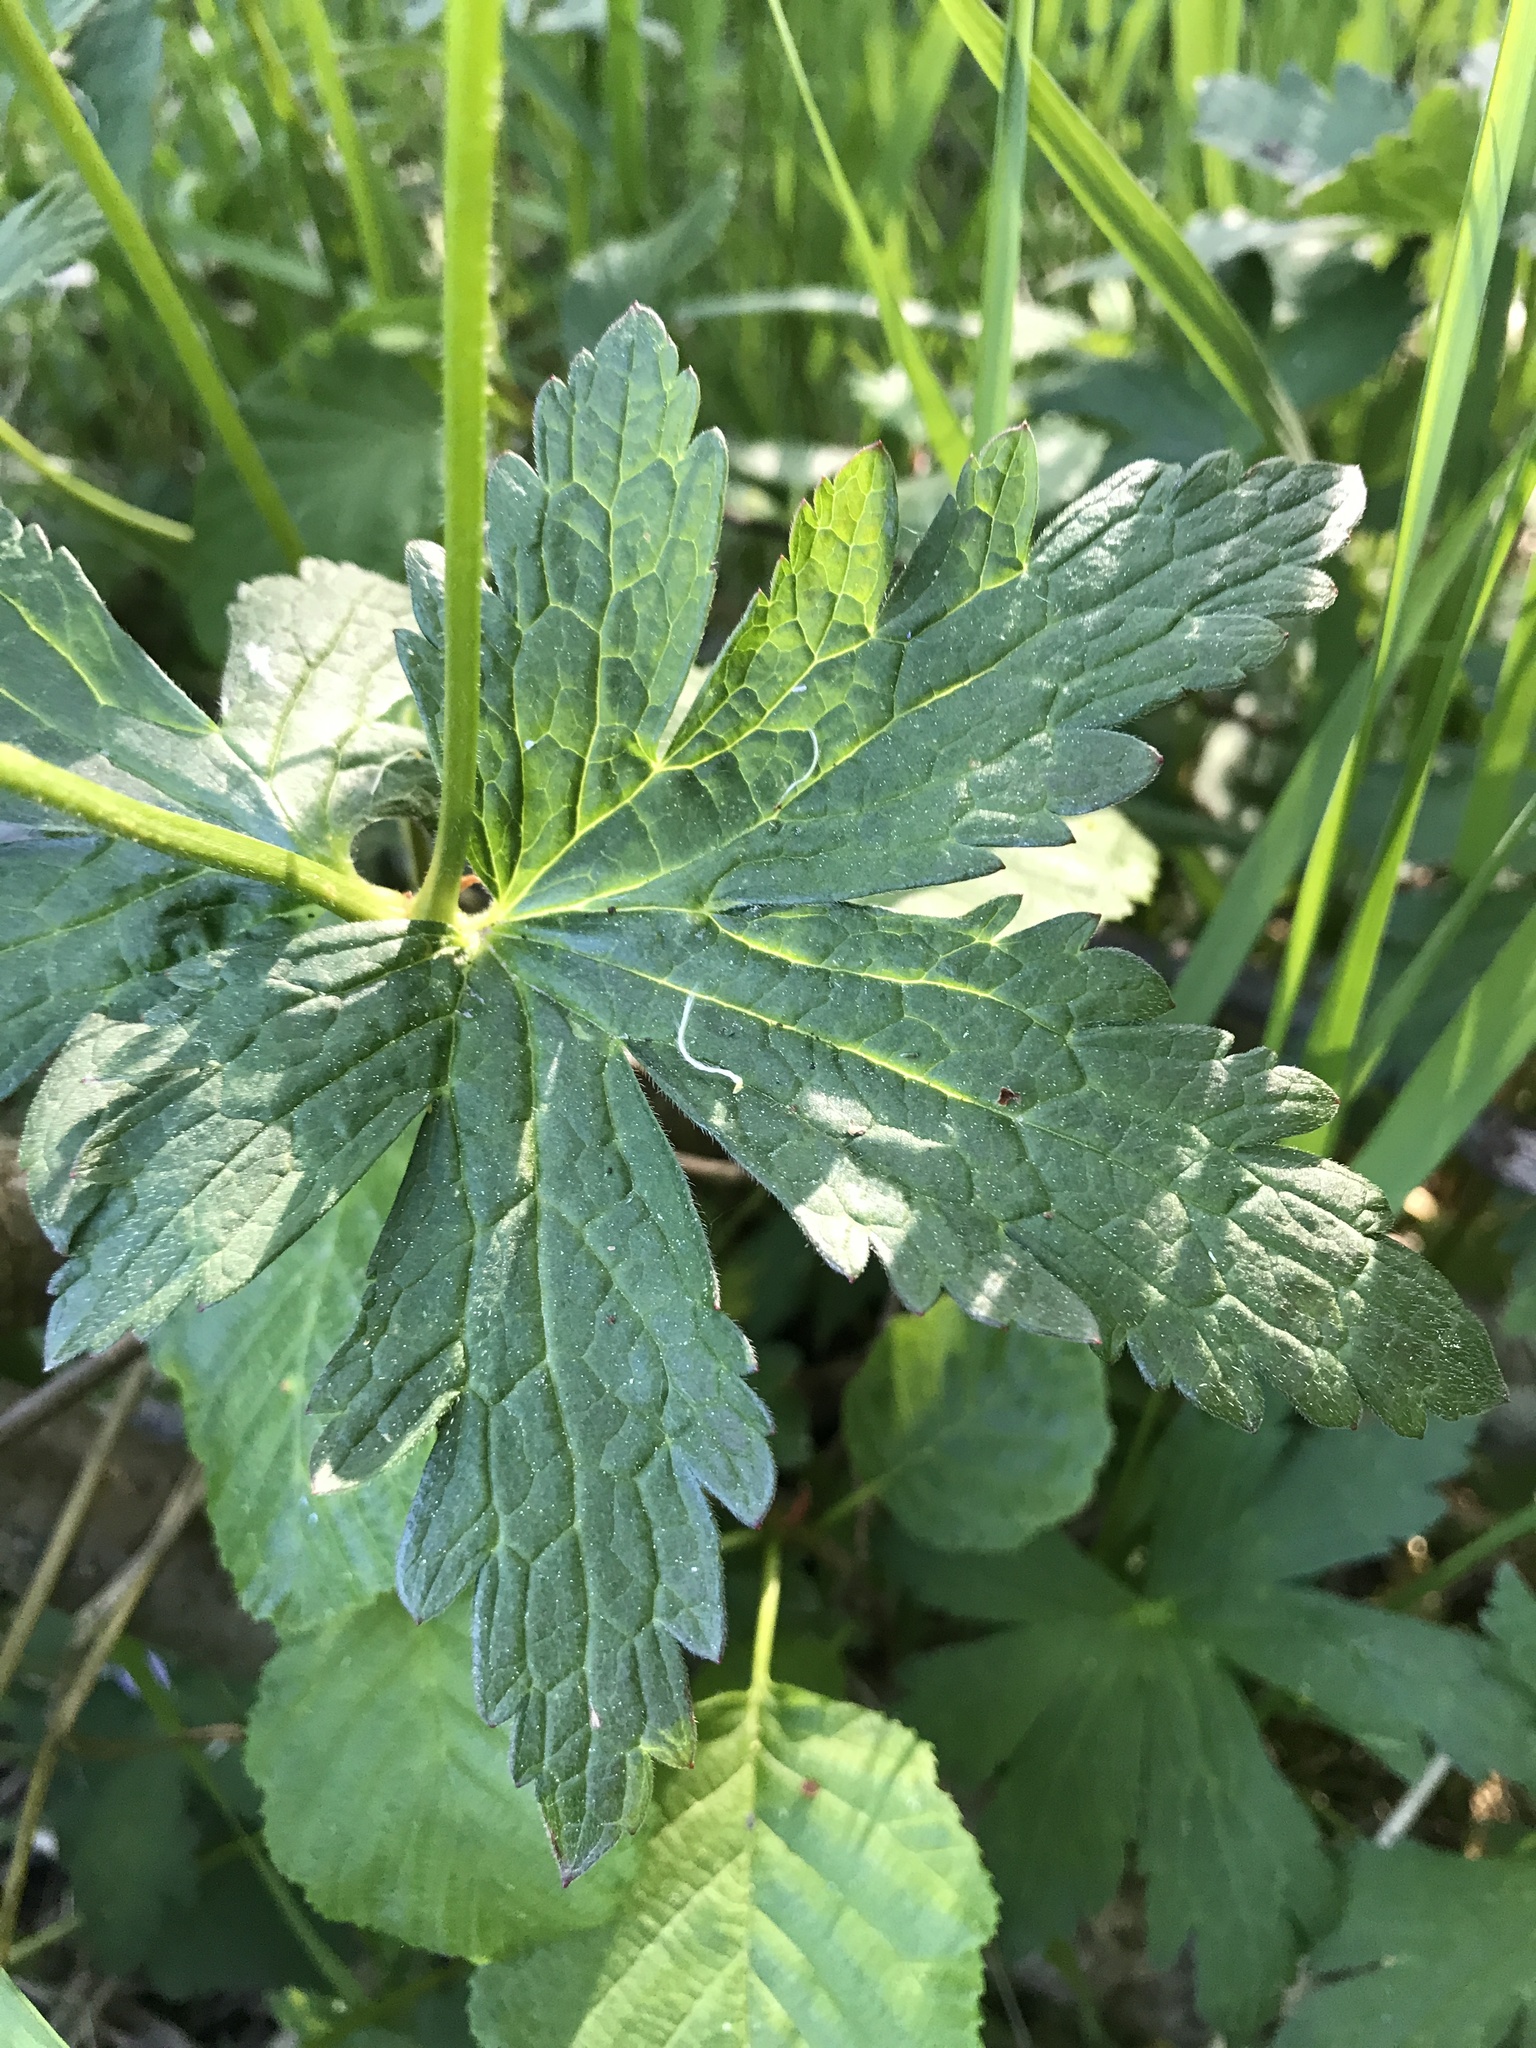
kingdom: Plantae
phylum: Tracheophyta
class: Magnoliopsida
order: Geraniales
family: Geraniaceae
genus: Geranium
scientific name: Geranium sylvaticum
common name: Wood crane's-bill
